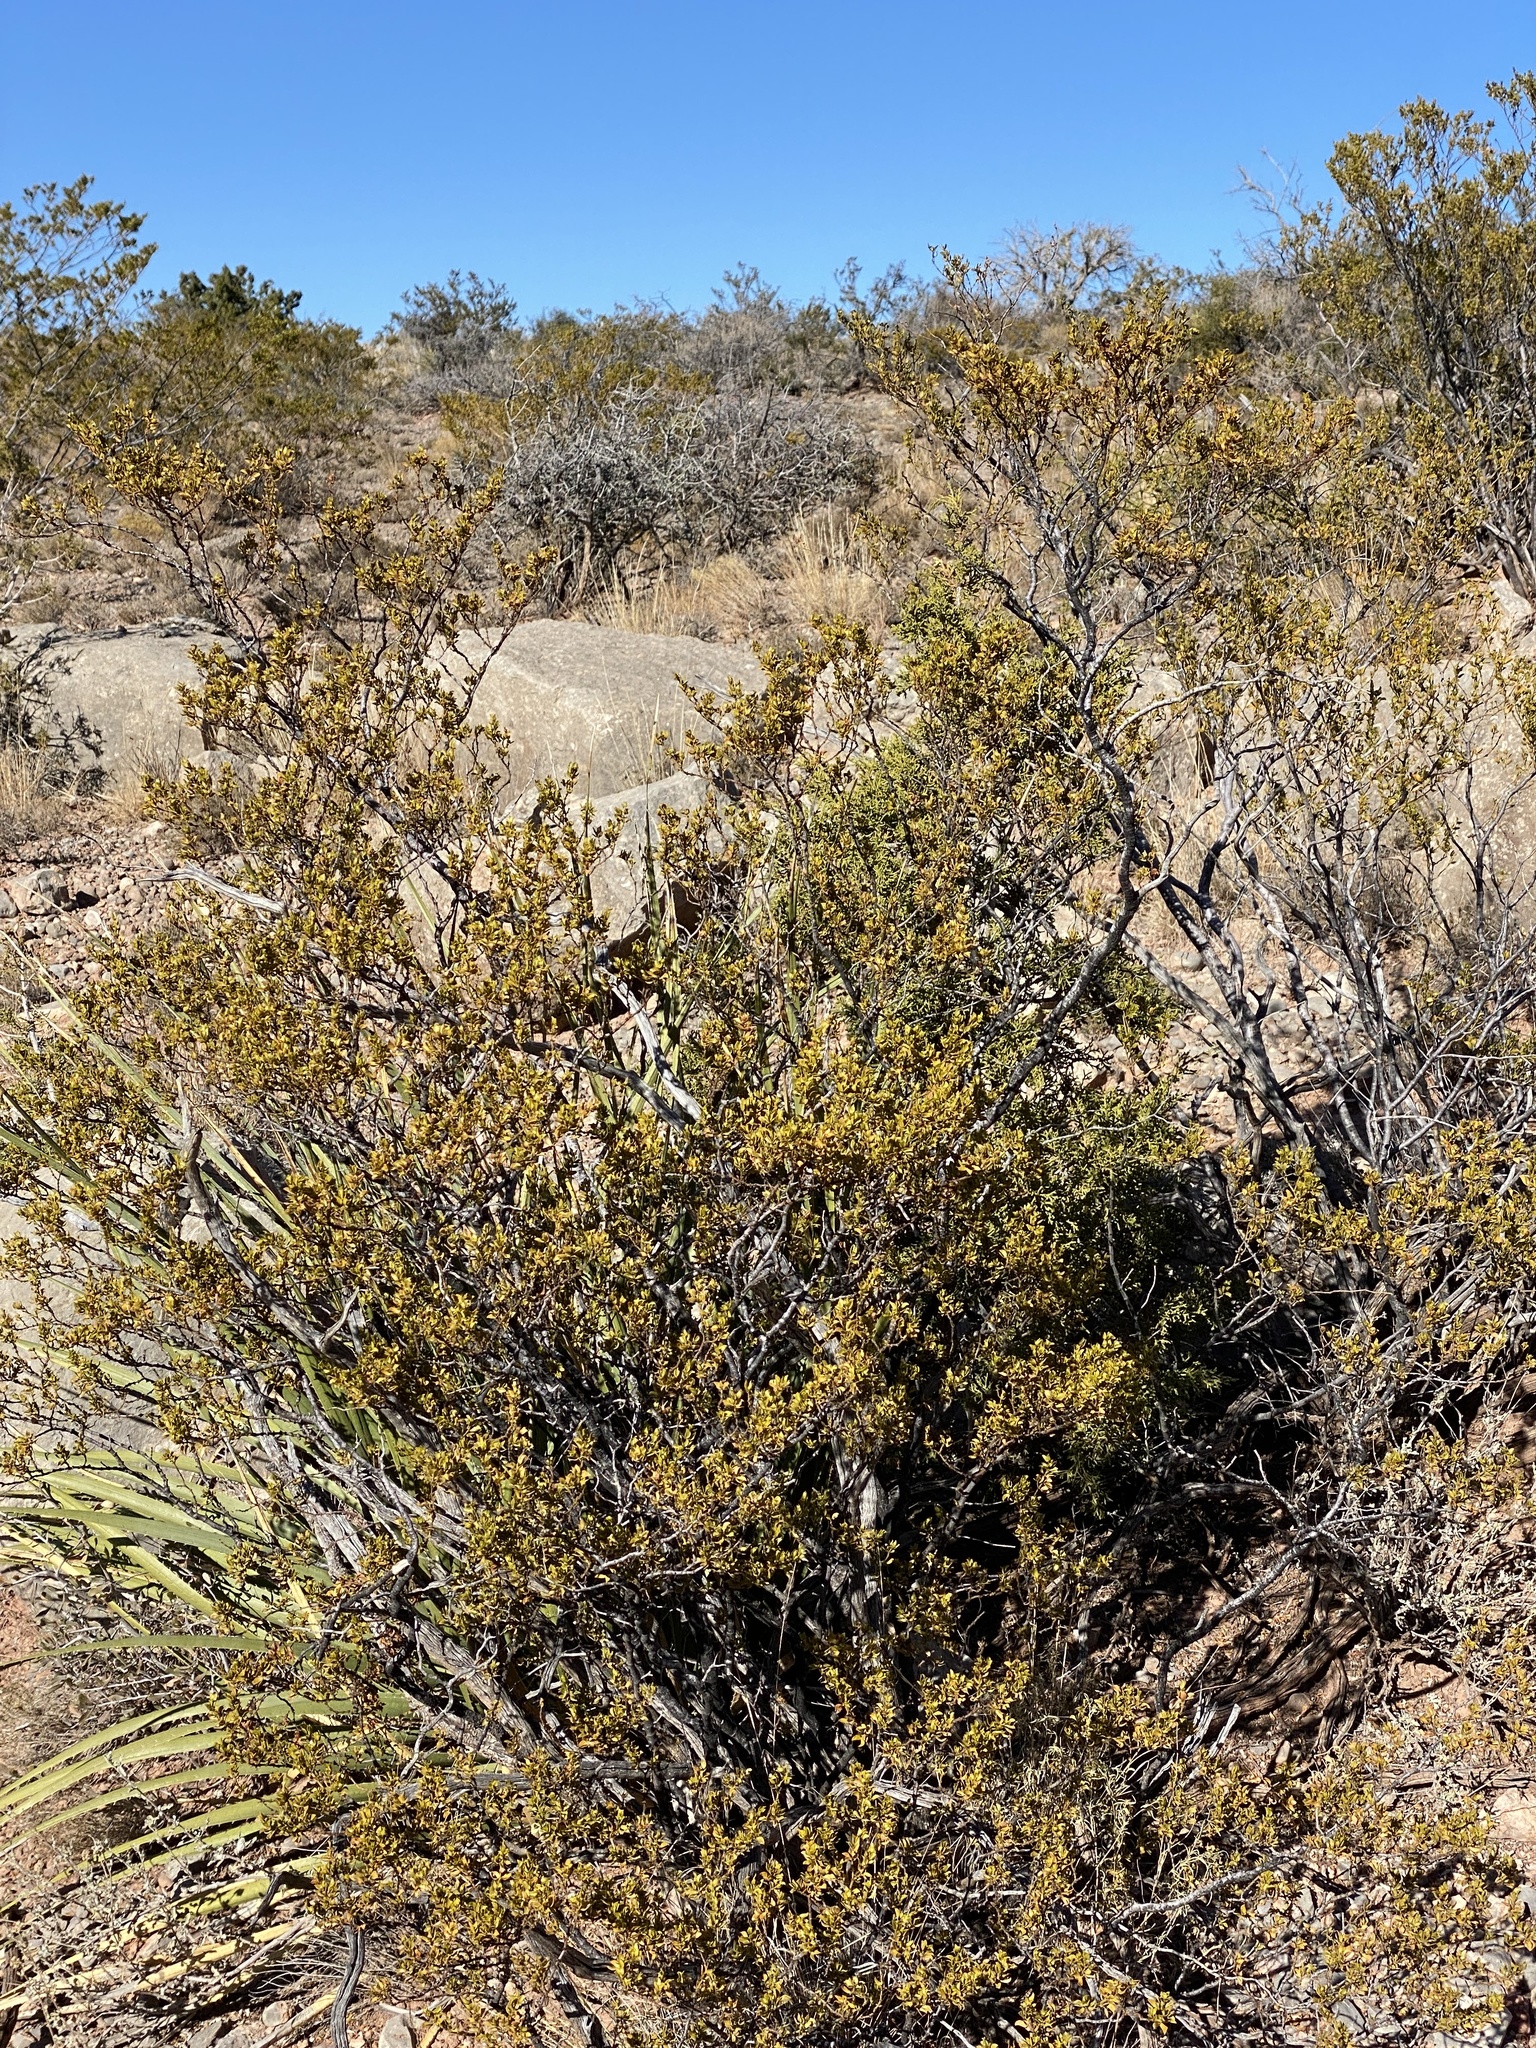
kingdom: Plantae
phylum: Tracheophyta
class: Magnoliopsida
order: Zygophyllales
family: Zygophyllaceae
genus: Larrea
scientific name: Larrea tridentata
